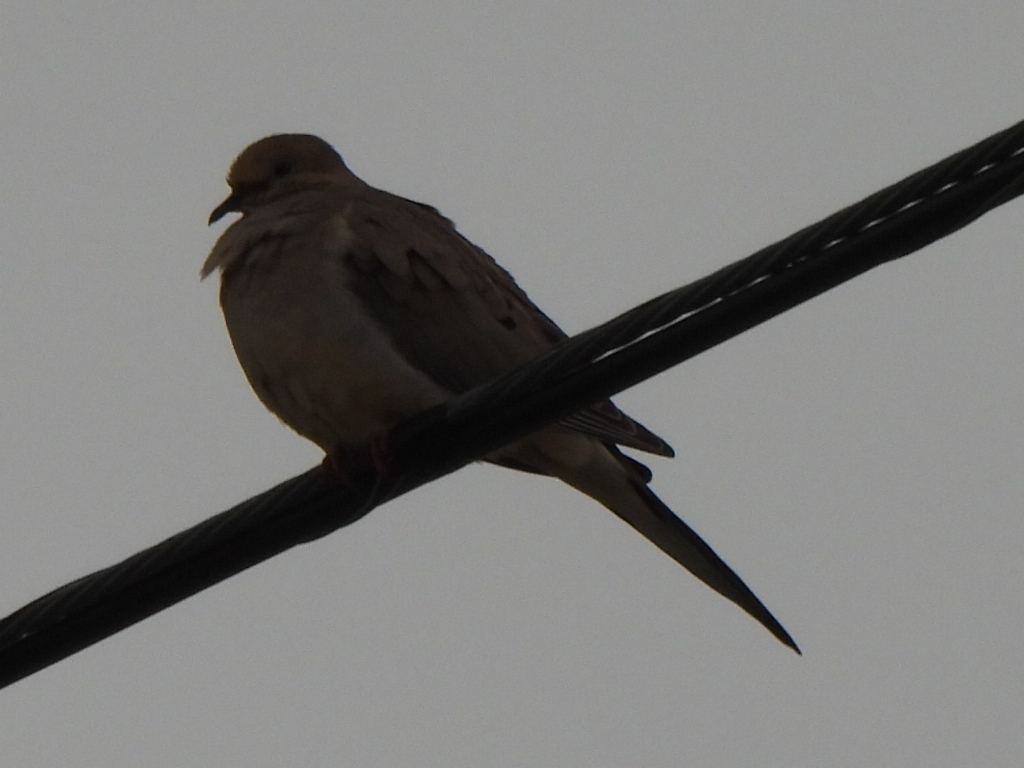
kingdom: Animalia
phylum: Chordata
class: Aves
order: Columbiformes
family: Columbidae
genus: Zenaida
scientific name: Zenaida macroura
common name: Mourning dove
